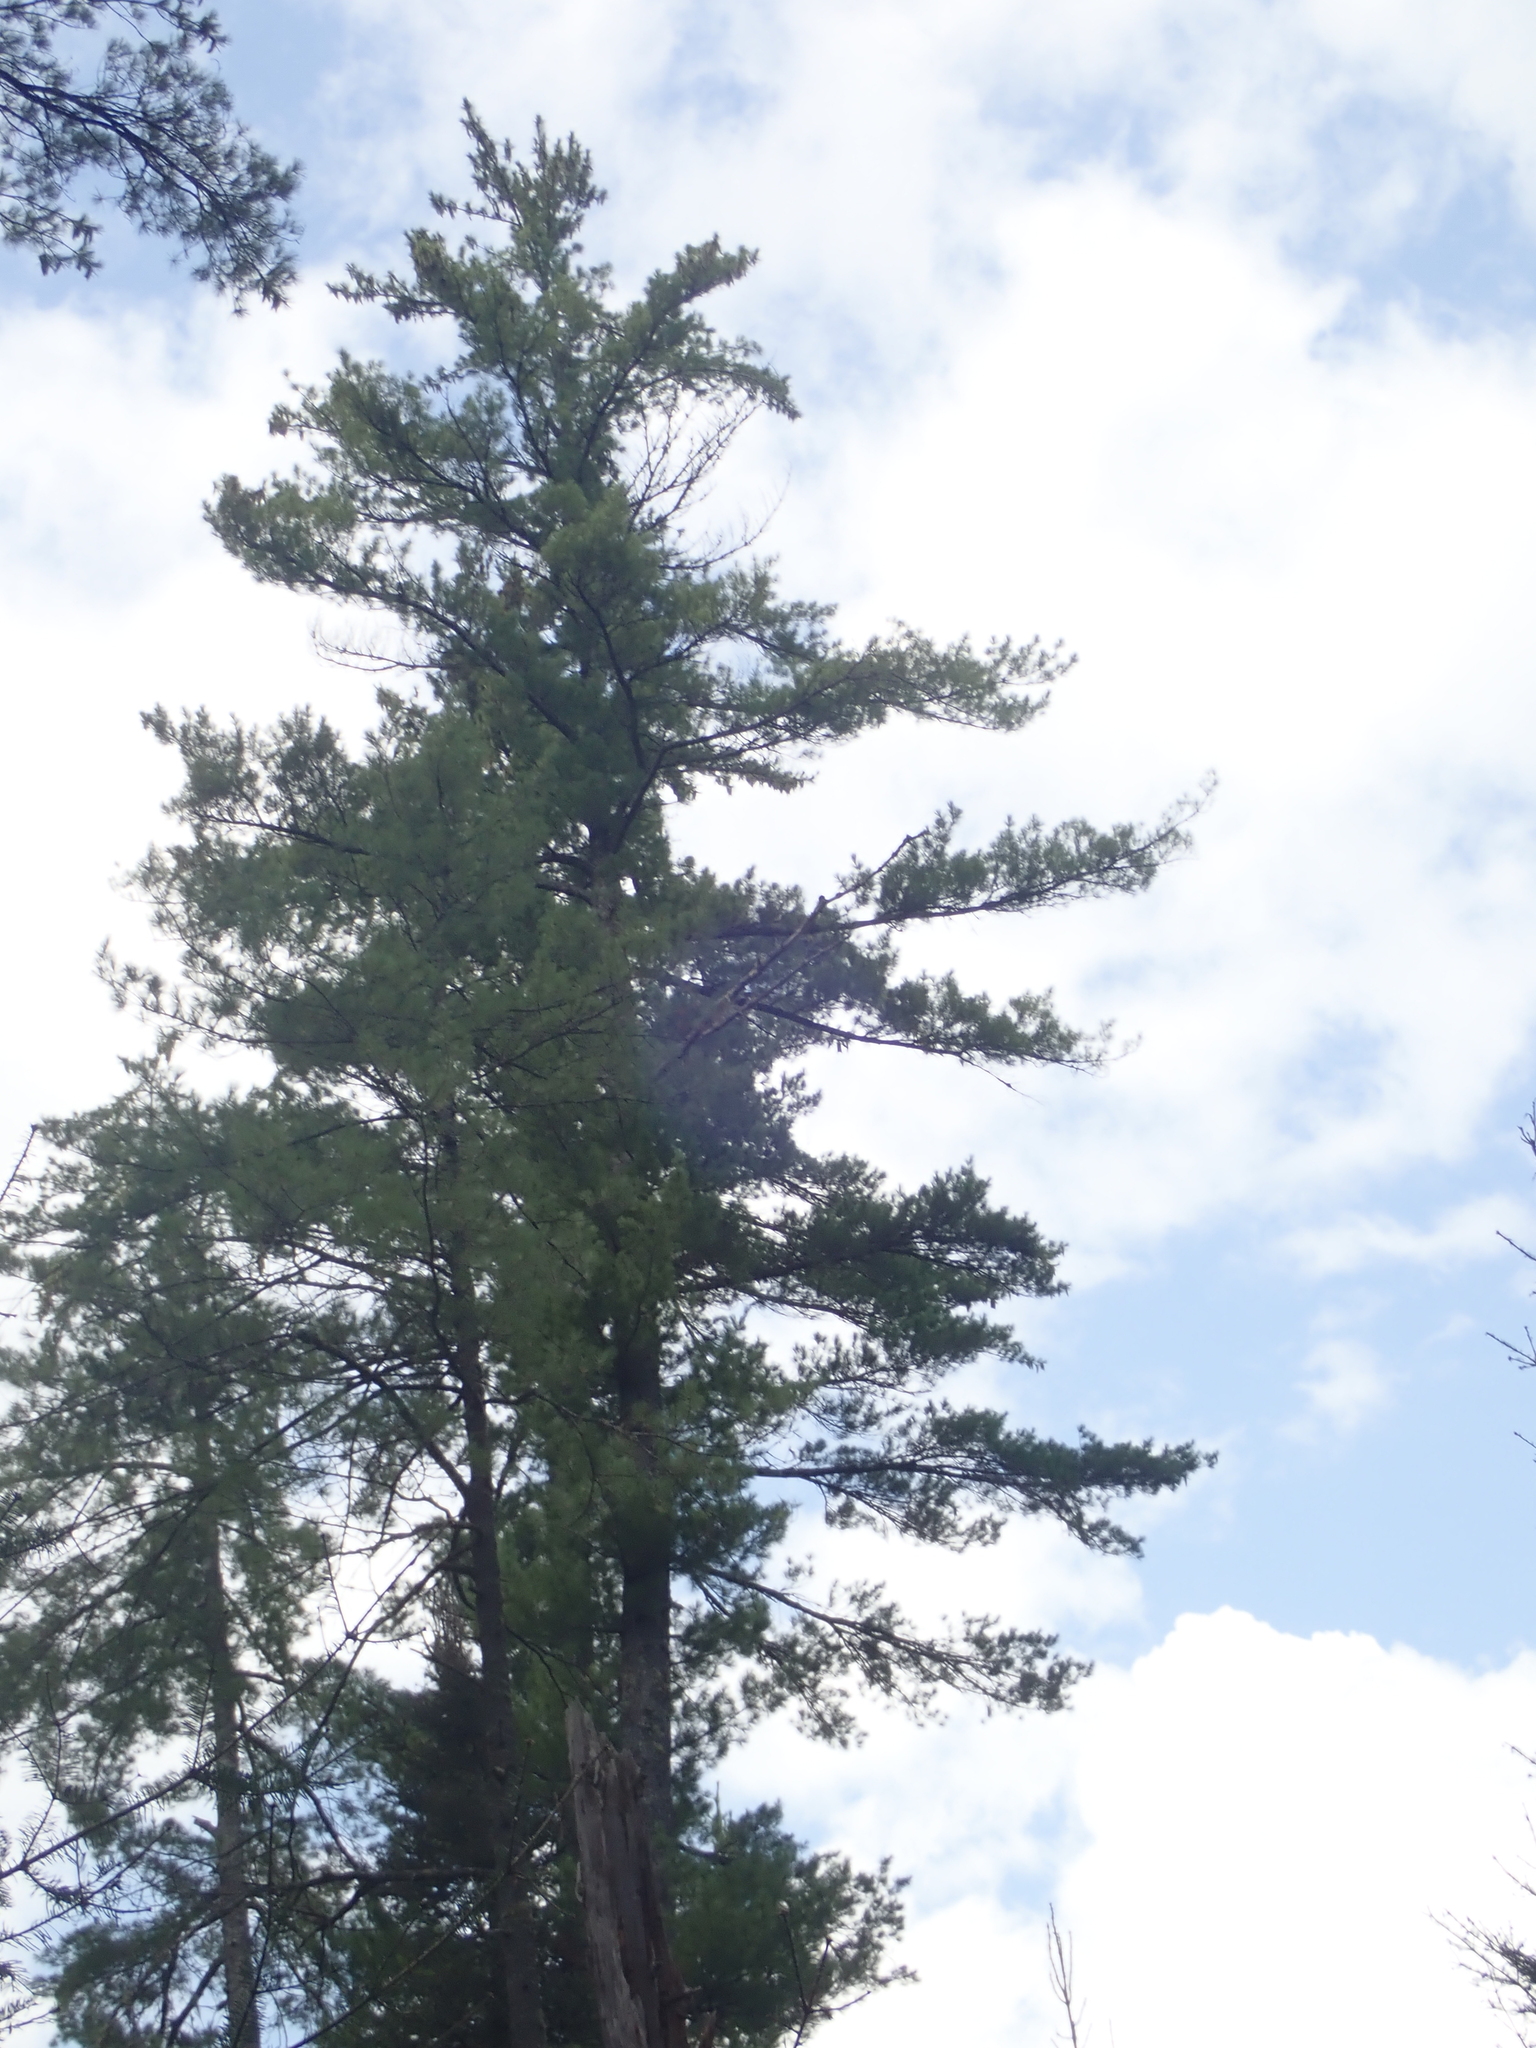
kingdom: Plantae
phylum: Tracheophyta
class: Pinopsida
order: Pinales
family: Pinaceae
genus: Pinus
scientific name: Pinus strobus
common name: Weymouth pine
